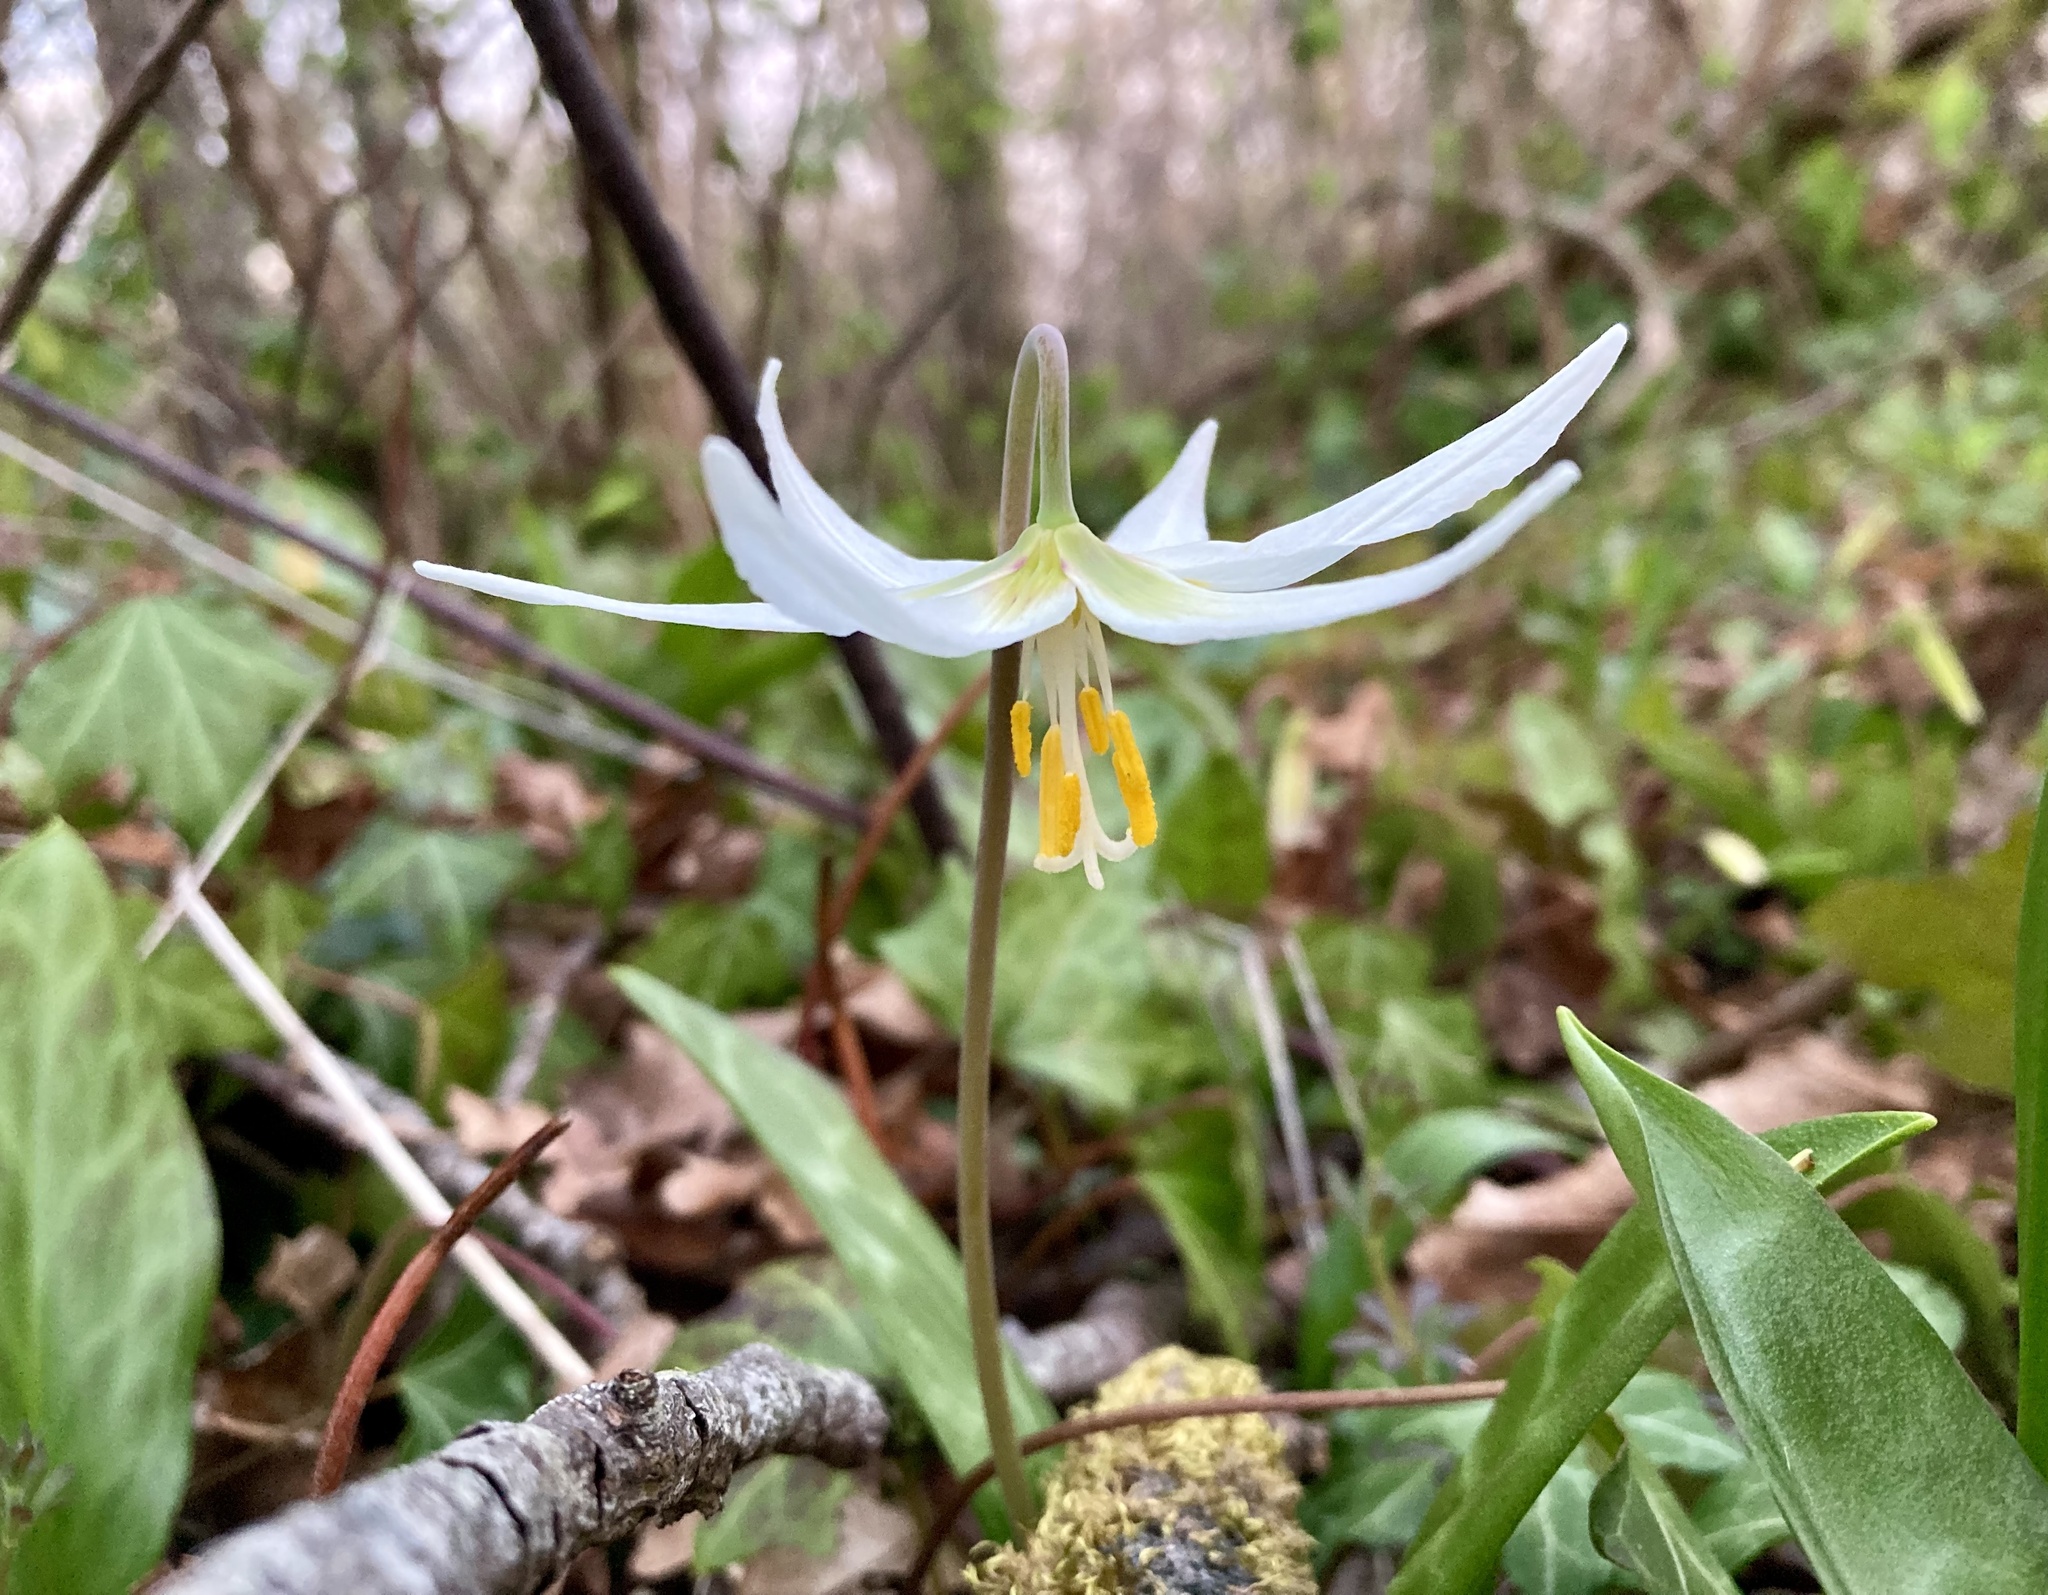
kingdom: Plantae
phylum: Tracheophyta
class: Liliopsida
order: Liliales
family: Liliaceae
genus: Erythronium
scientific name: Erythronium oregonum
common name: Giant adder's-tongue
